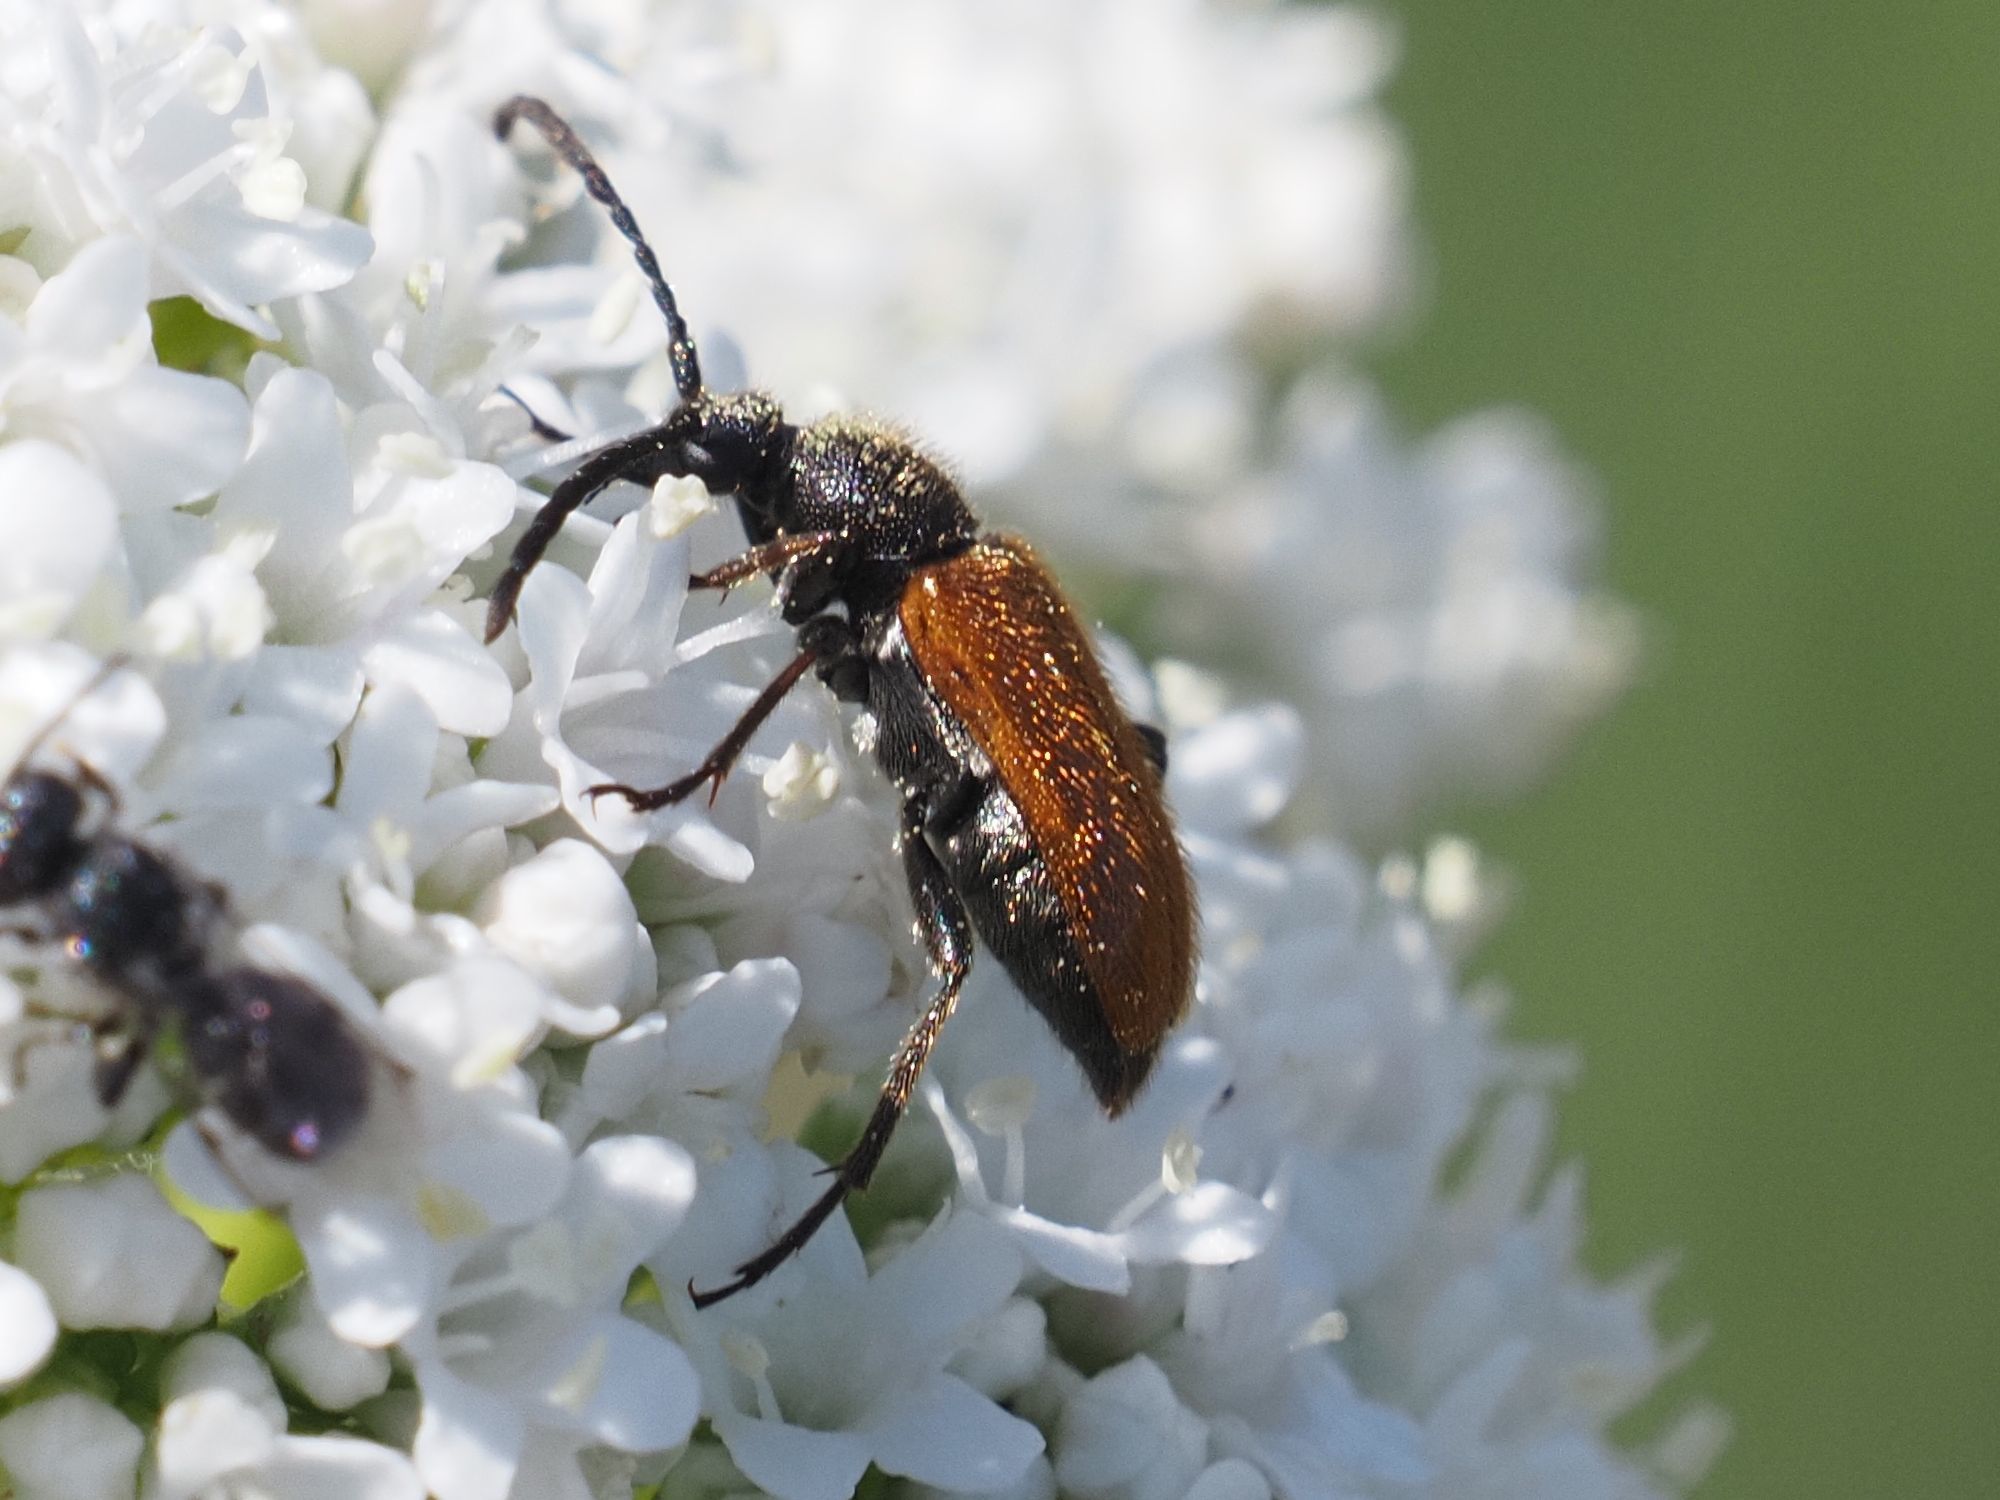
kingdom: Animalia
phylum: Arthropoda
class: Insecta
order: Coleoptera
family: Cerambycidae
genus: Pseudovadonia
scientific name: Pseudovadonia livida
